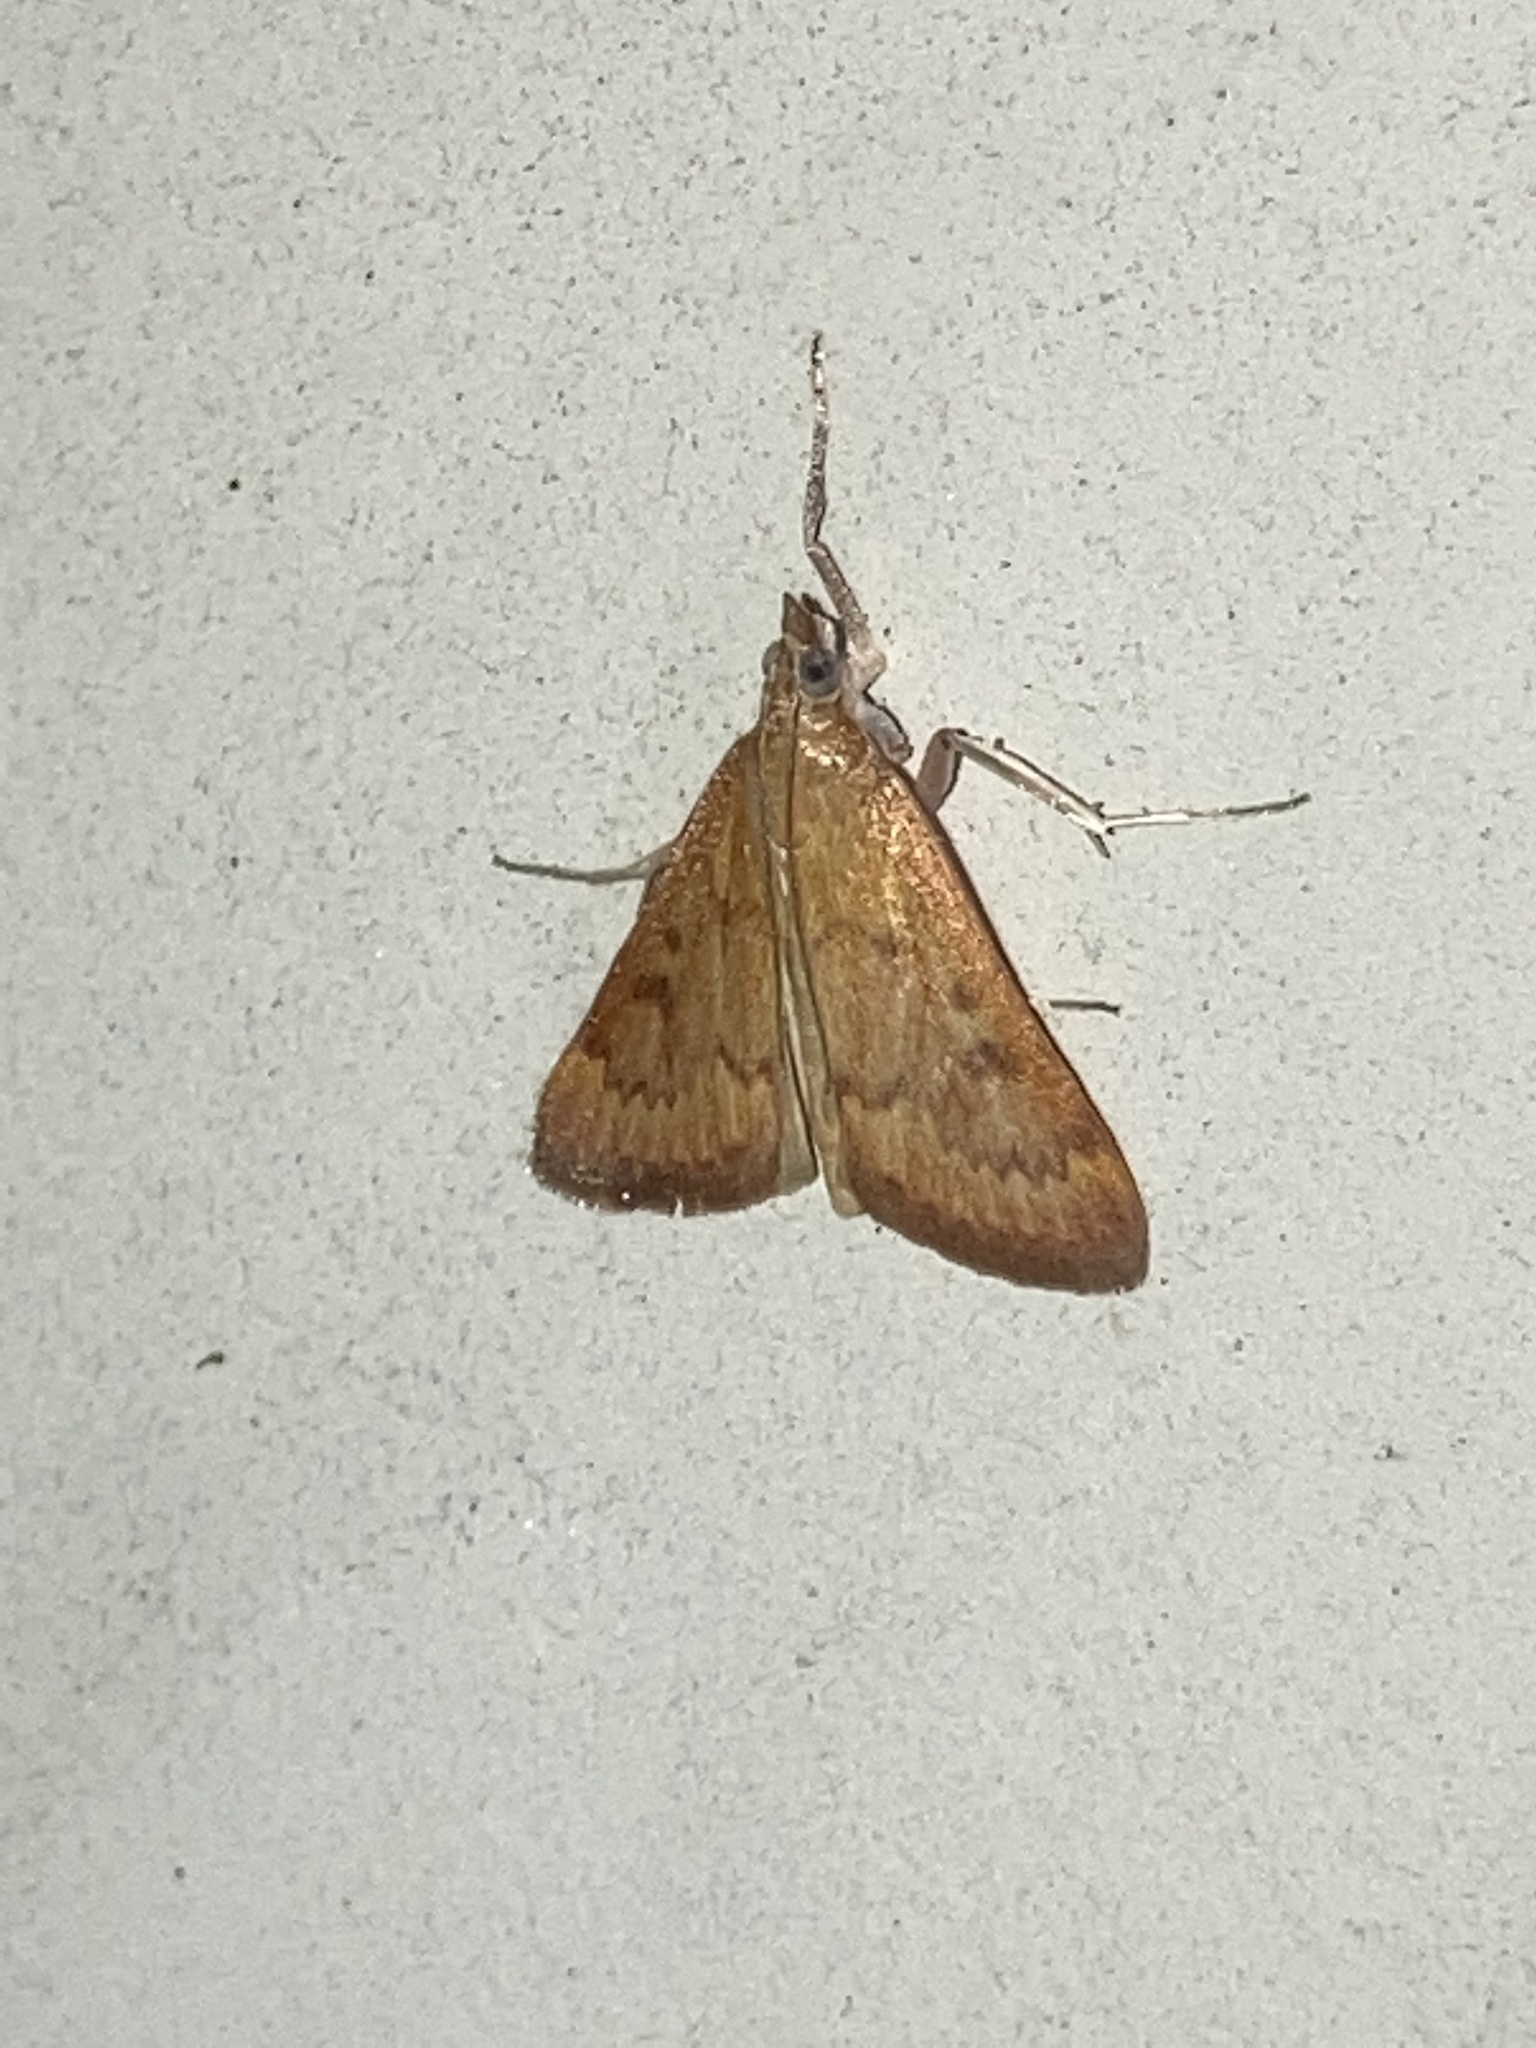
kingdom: Animalia
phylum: Arthropoda
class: Insecta
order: Lepidoptera
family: Crambidae
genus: Achyra
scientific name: Achyra rantalis
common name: Garden webworm
